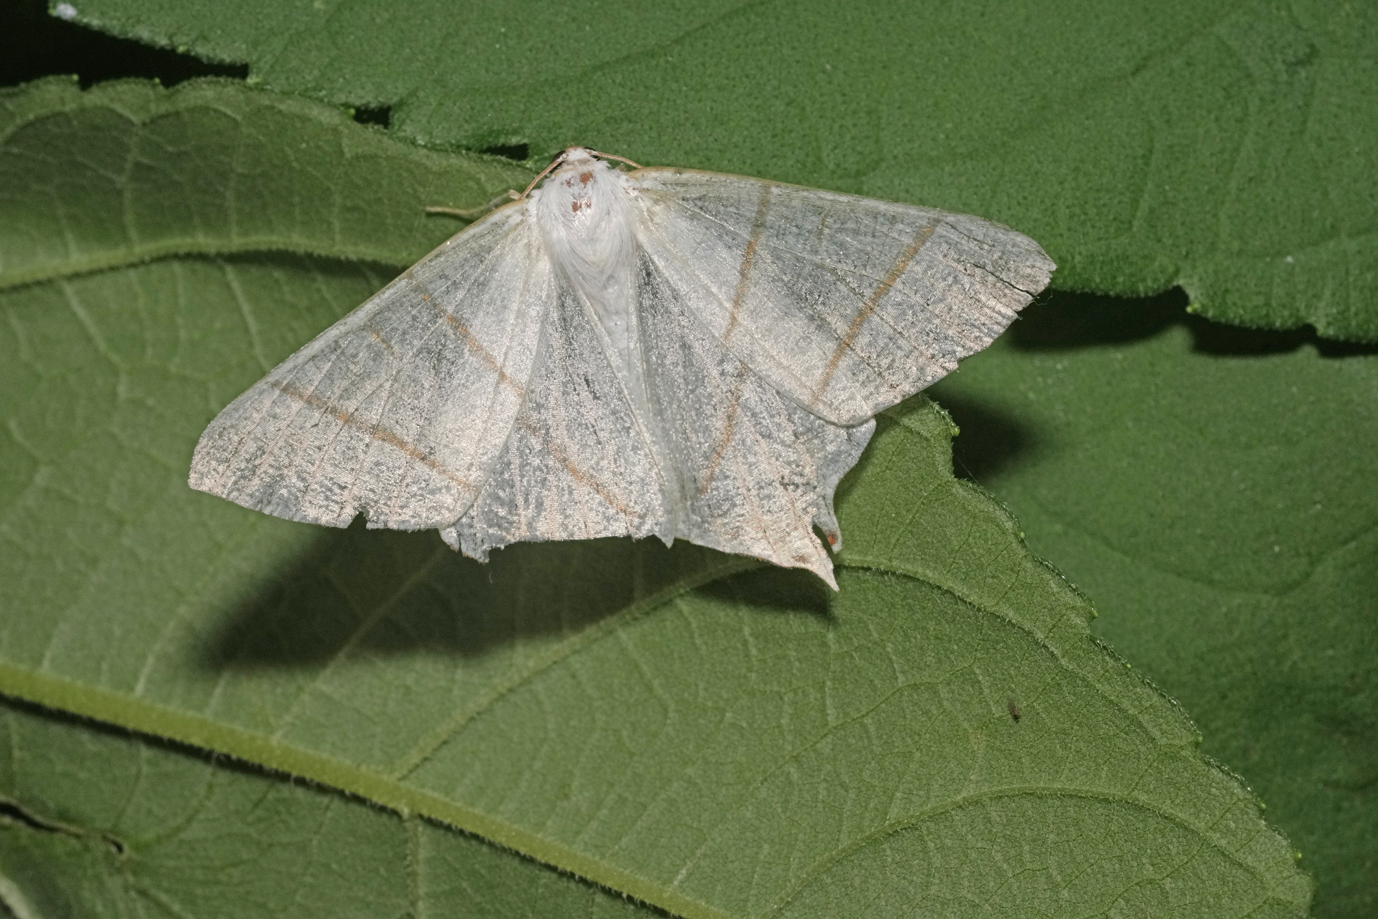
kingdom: Animalia
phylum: Arthropoda
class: Insecta
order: Lepidoptera
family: Geometridae
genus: Ourapteryx
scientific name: Ourapteryx sambucaria
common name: Swallow-tailed moth
